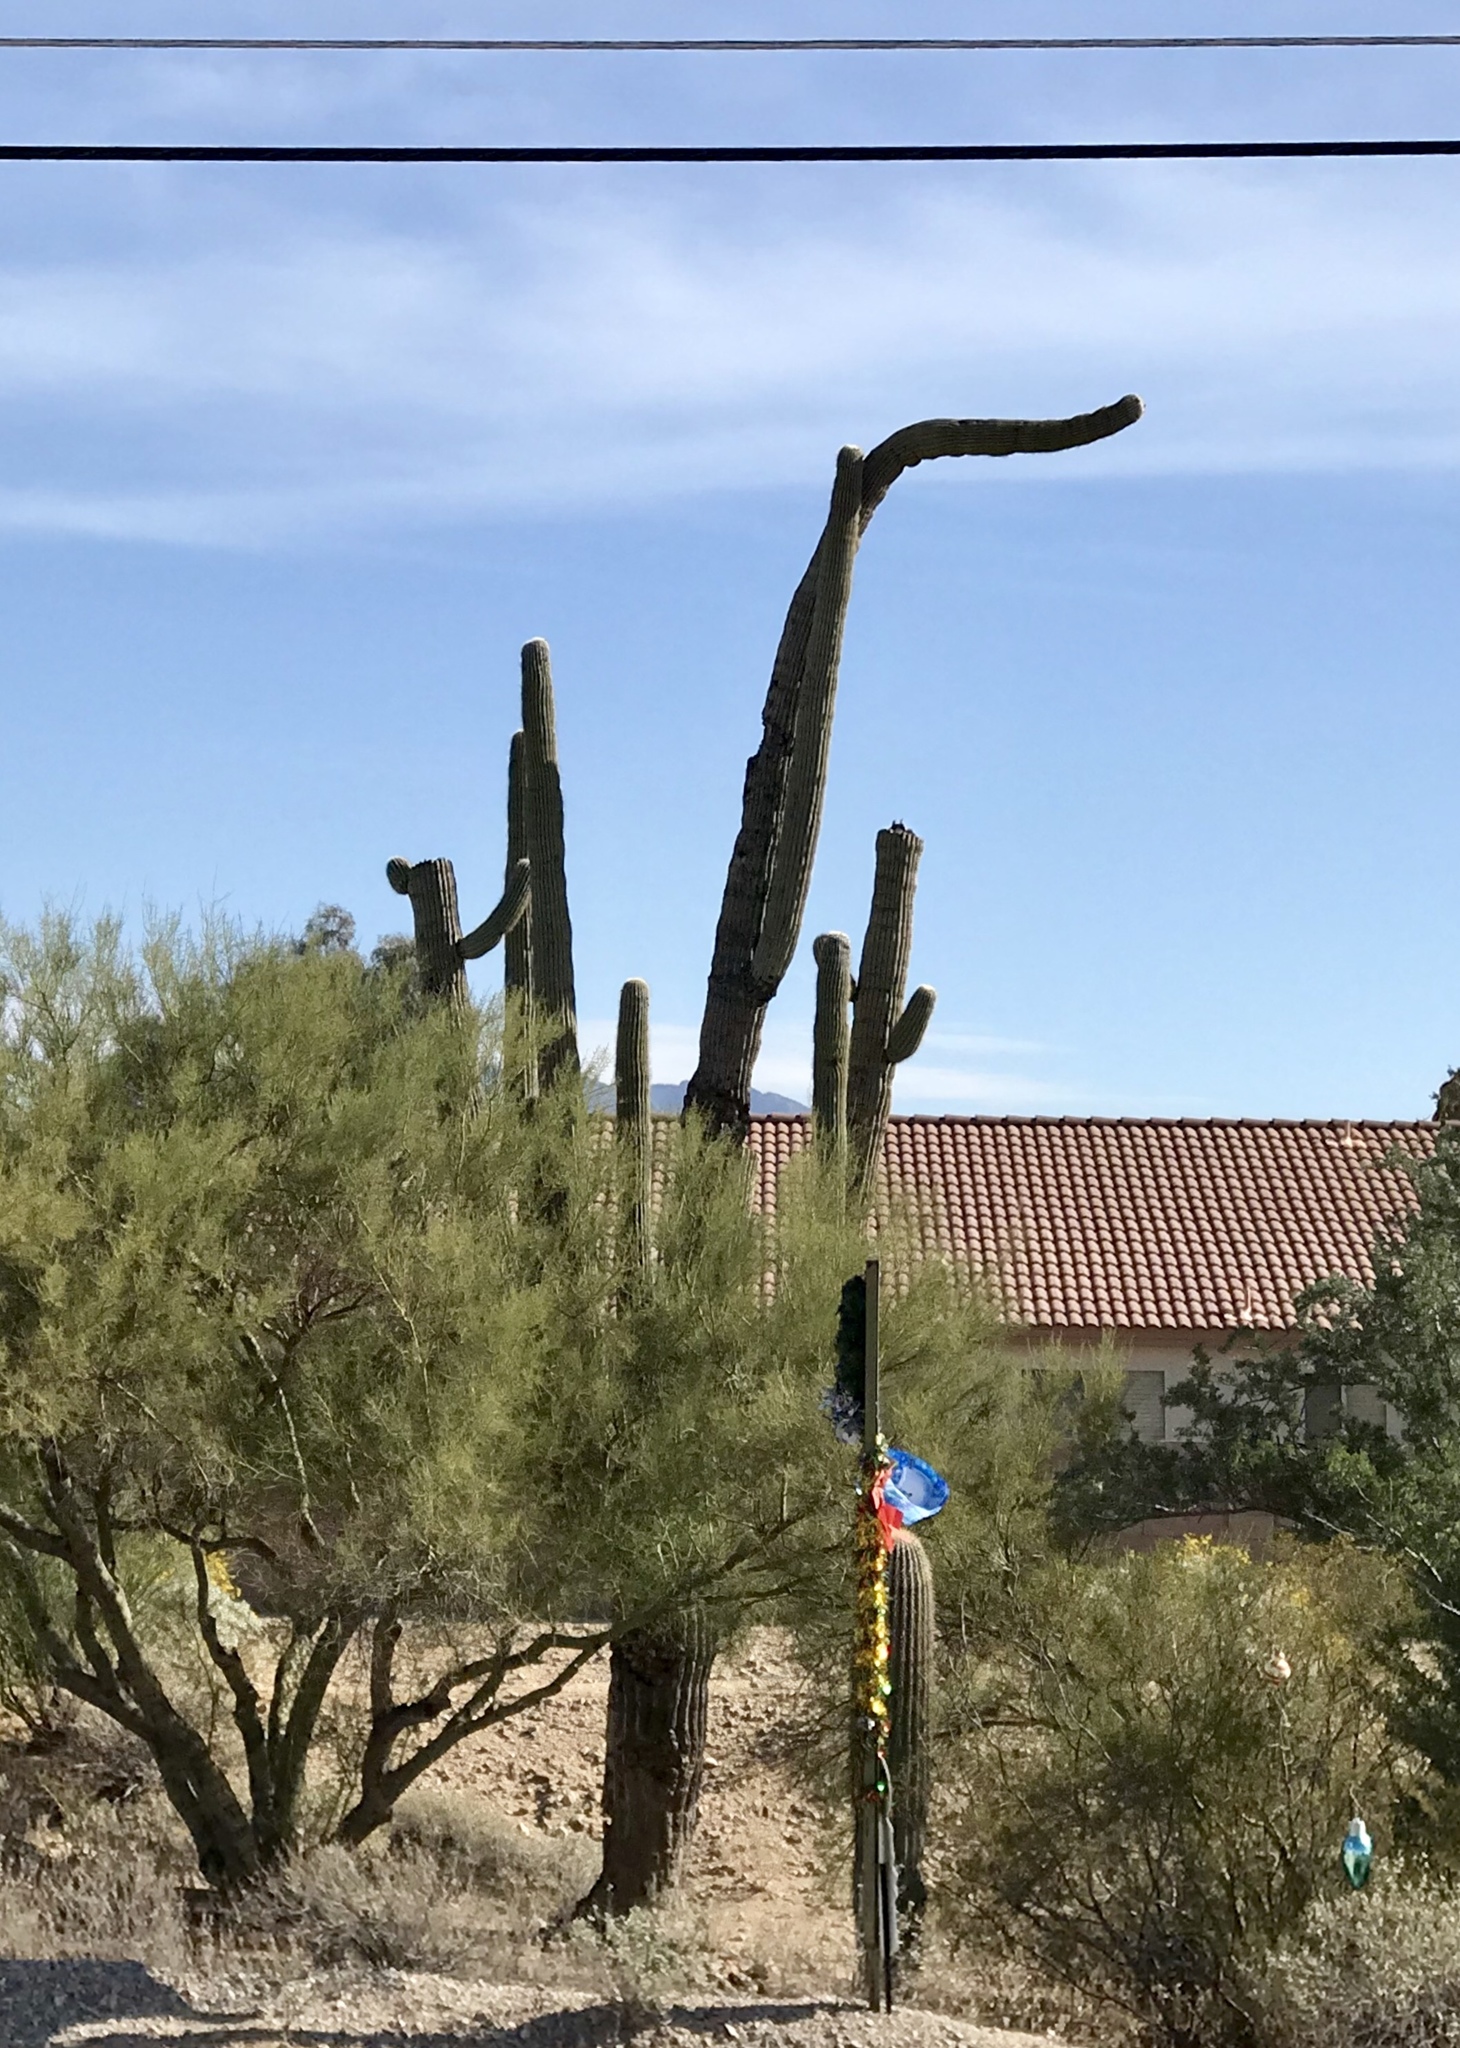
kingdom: Plantae
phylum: Tracheophyta
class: Magnoliopsida
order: Caryophyllales
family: Cactaceae
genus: Carnegiea
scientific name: Carnegiea gigantea
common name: Saguaro
